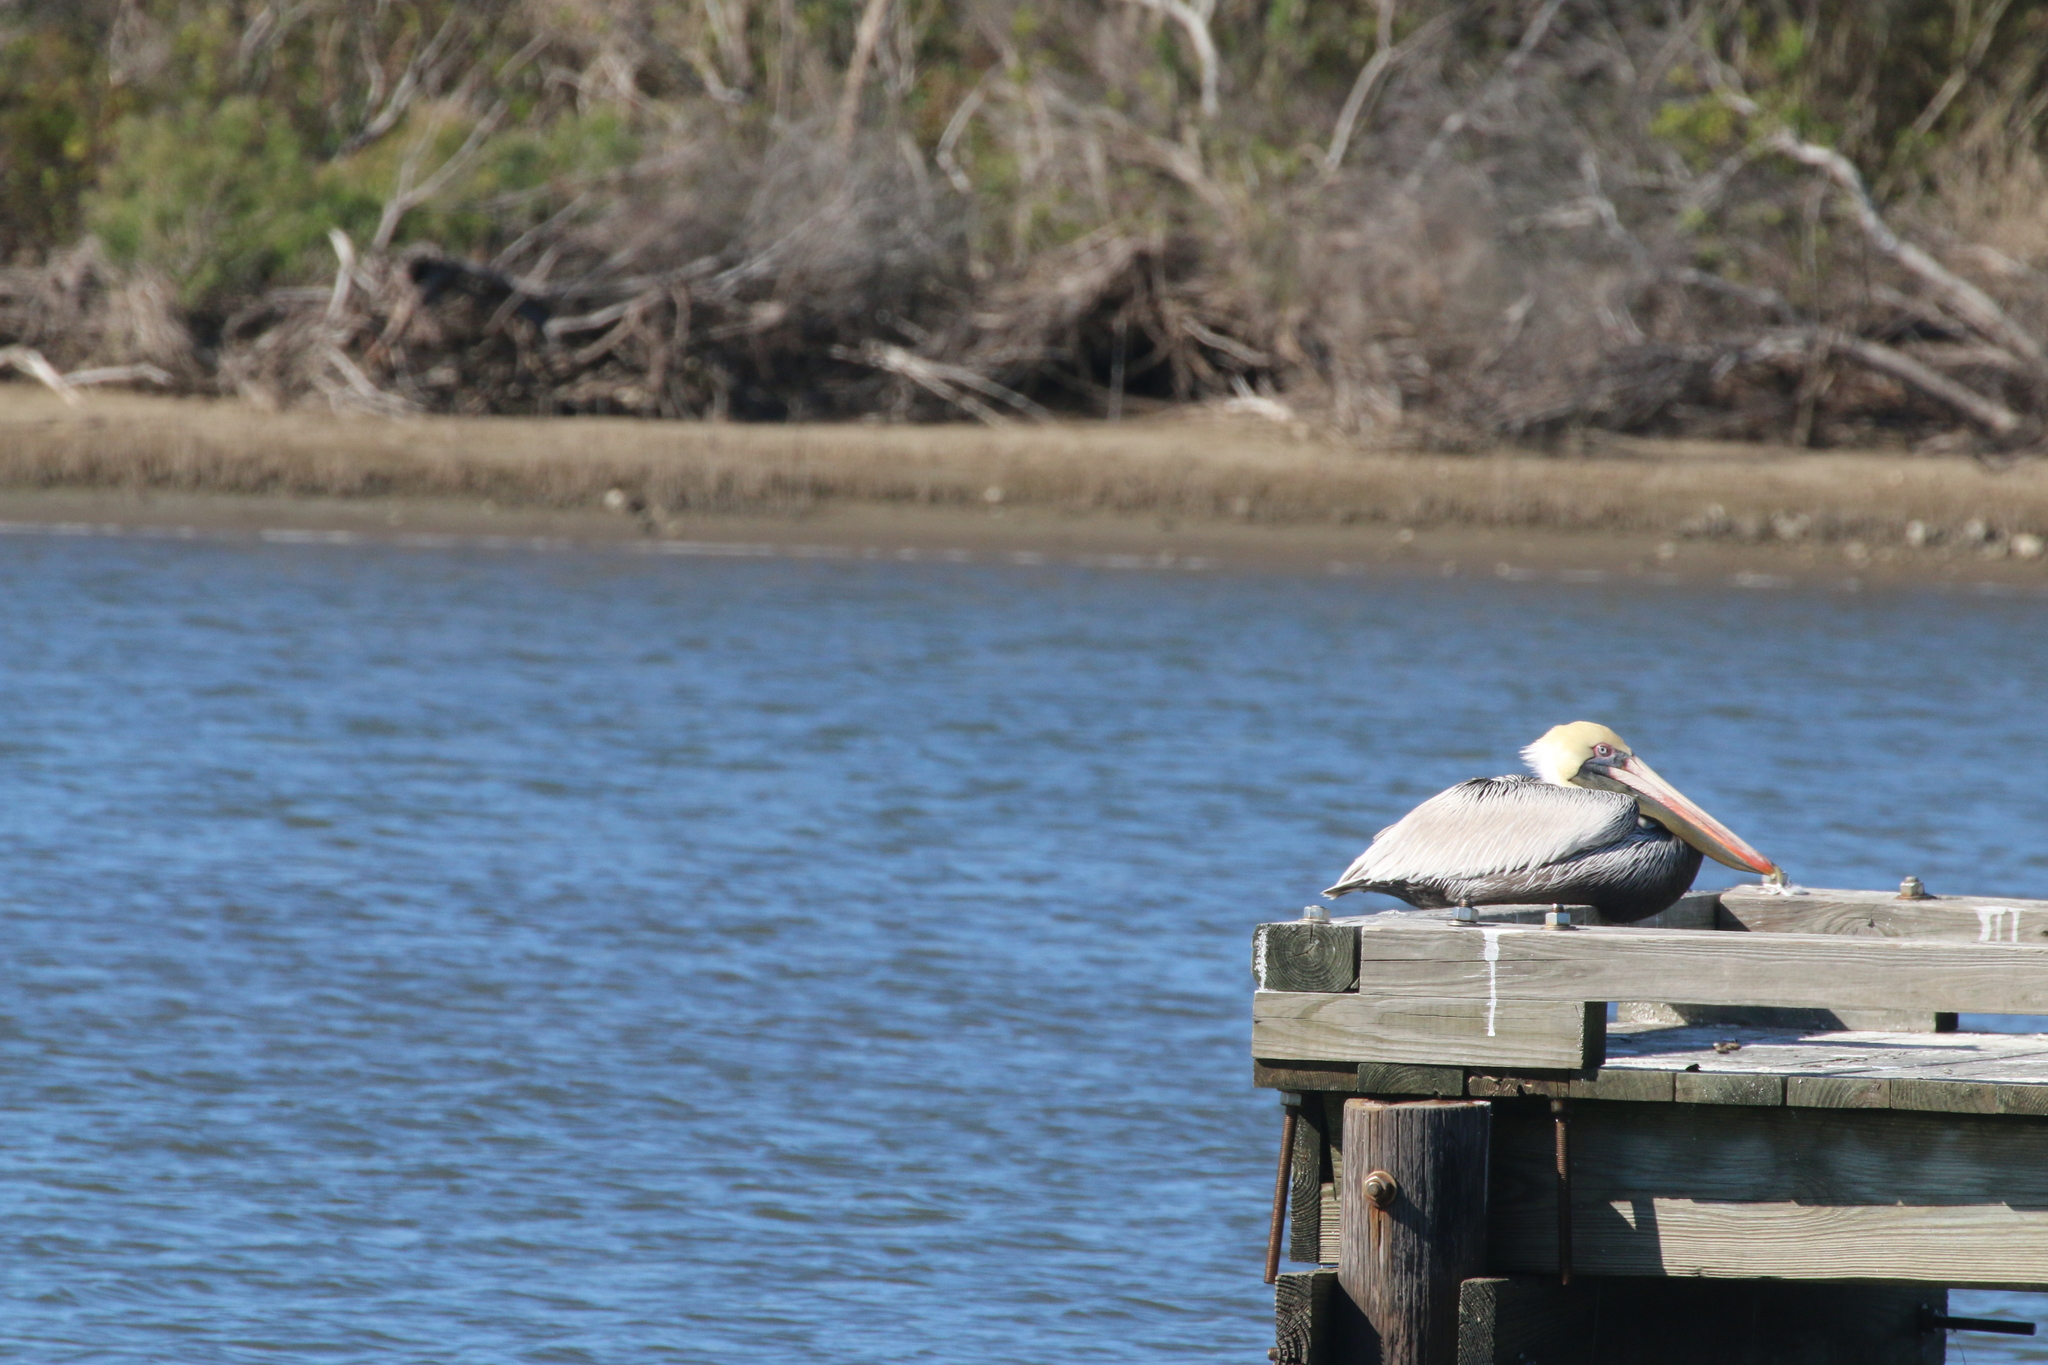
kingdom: Animalia
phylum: Chordata
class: Aves
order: Pelecaniformes
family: Pelecanidae
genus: Pelecanus
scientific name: Pelecanus occidentalis
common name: Brown pelican
